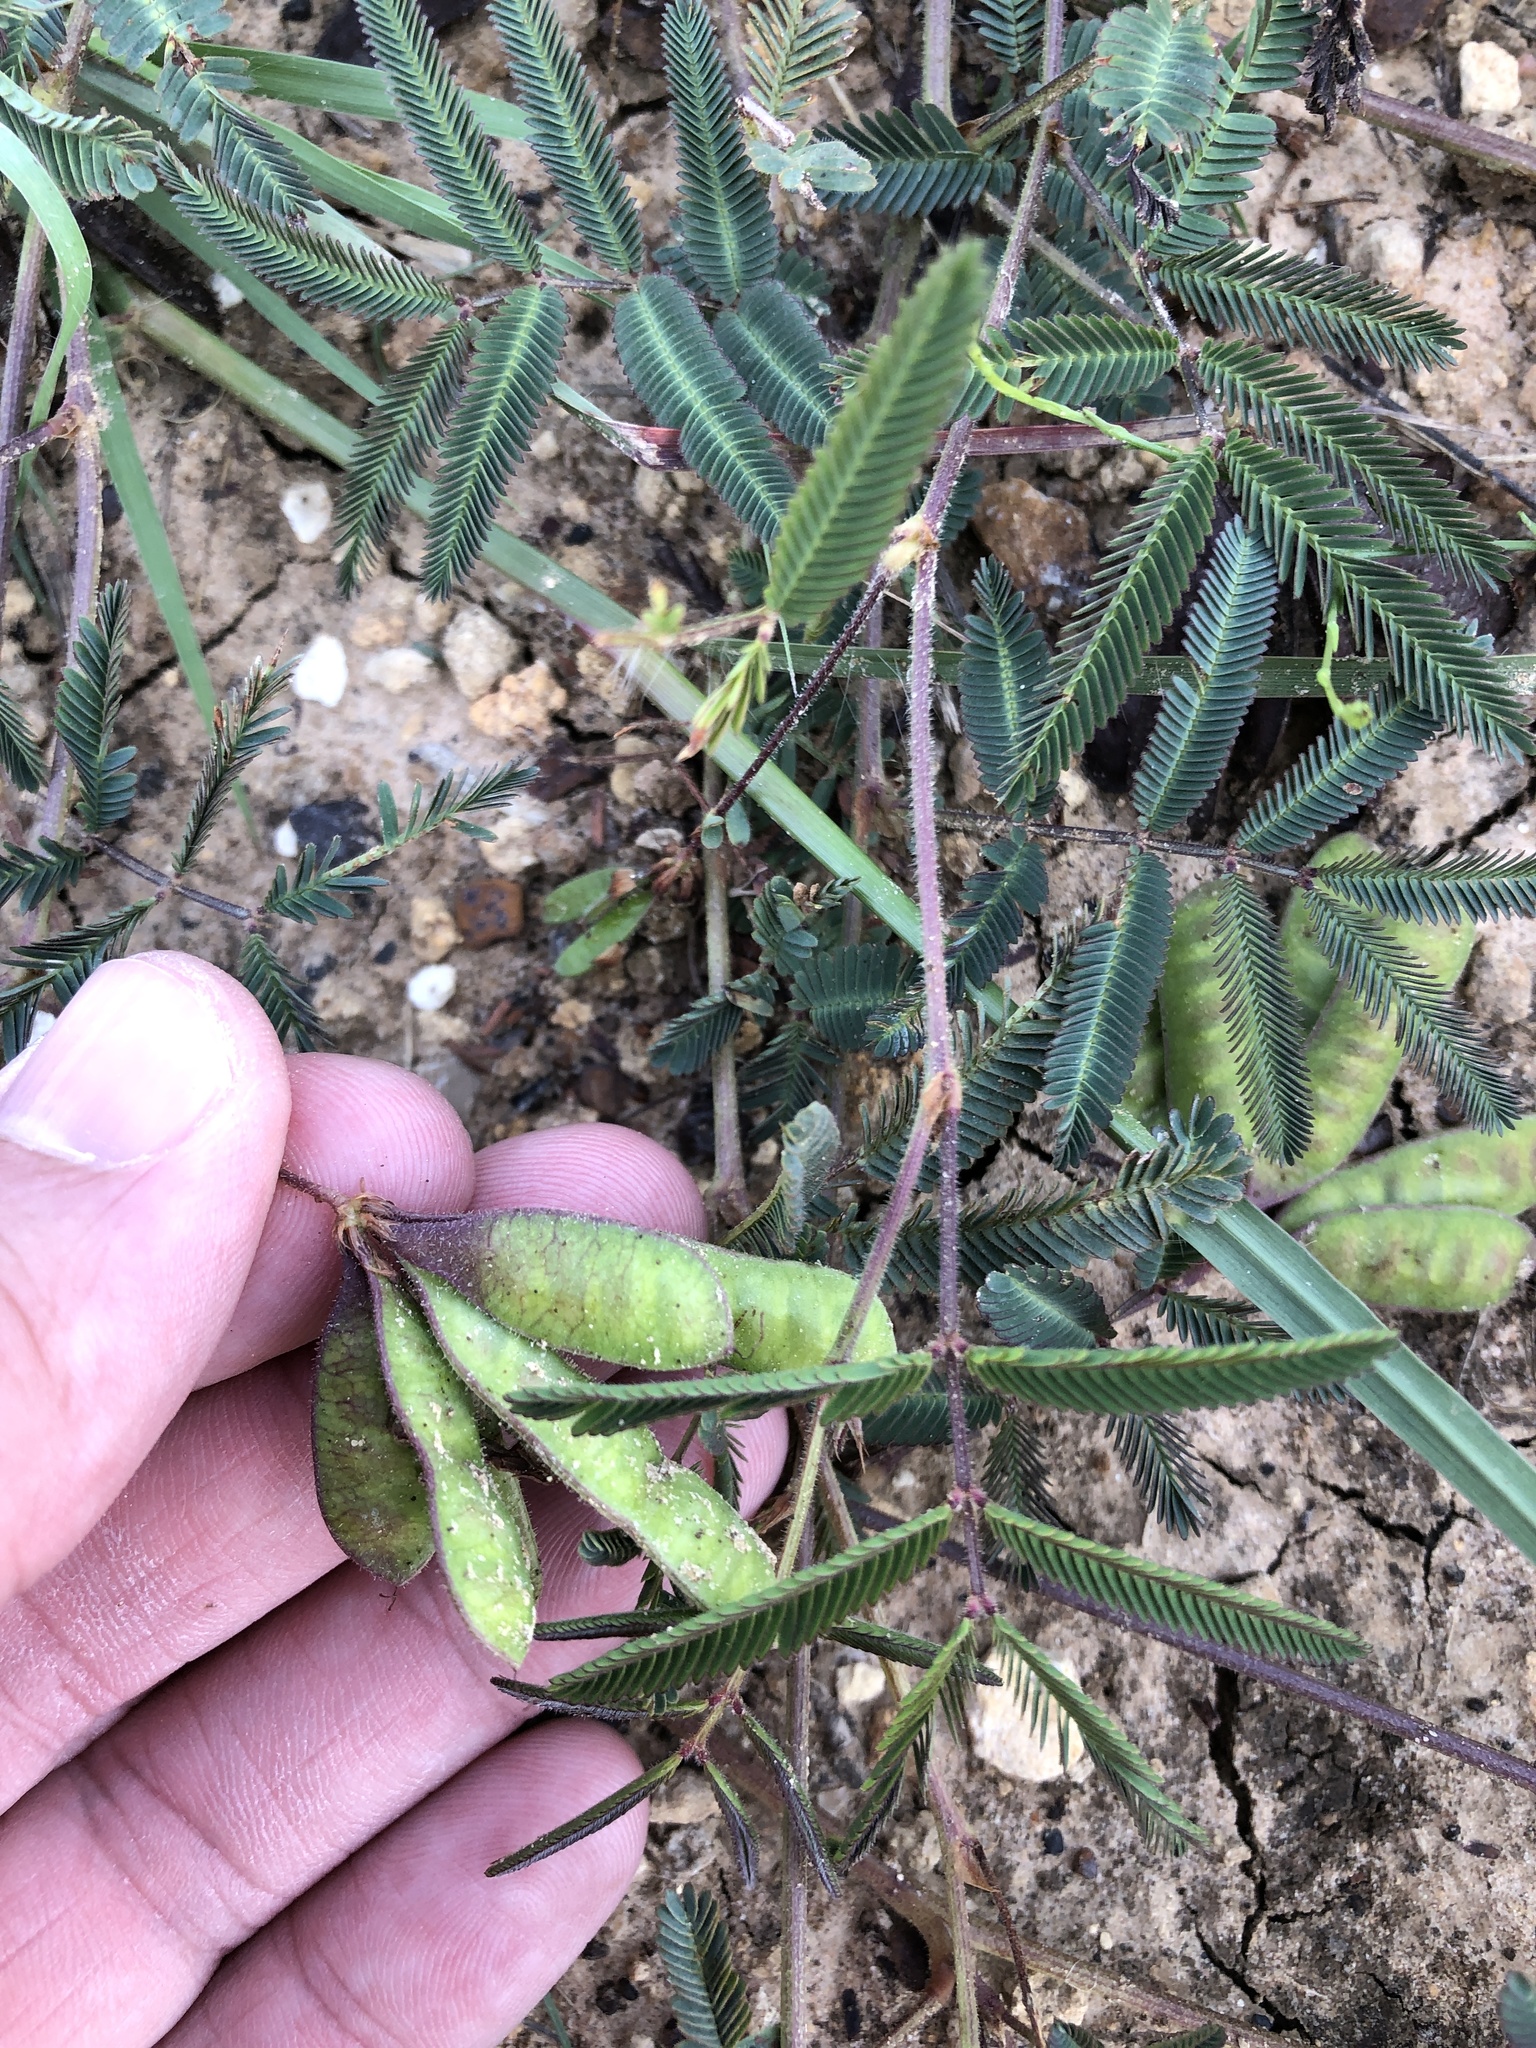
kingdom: Plantae
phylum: Tracheophyta
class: Magnoliopsida
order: Fabales
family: Fabaceae
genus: Neptunia
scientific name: Neptunia lutea
